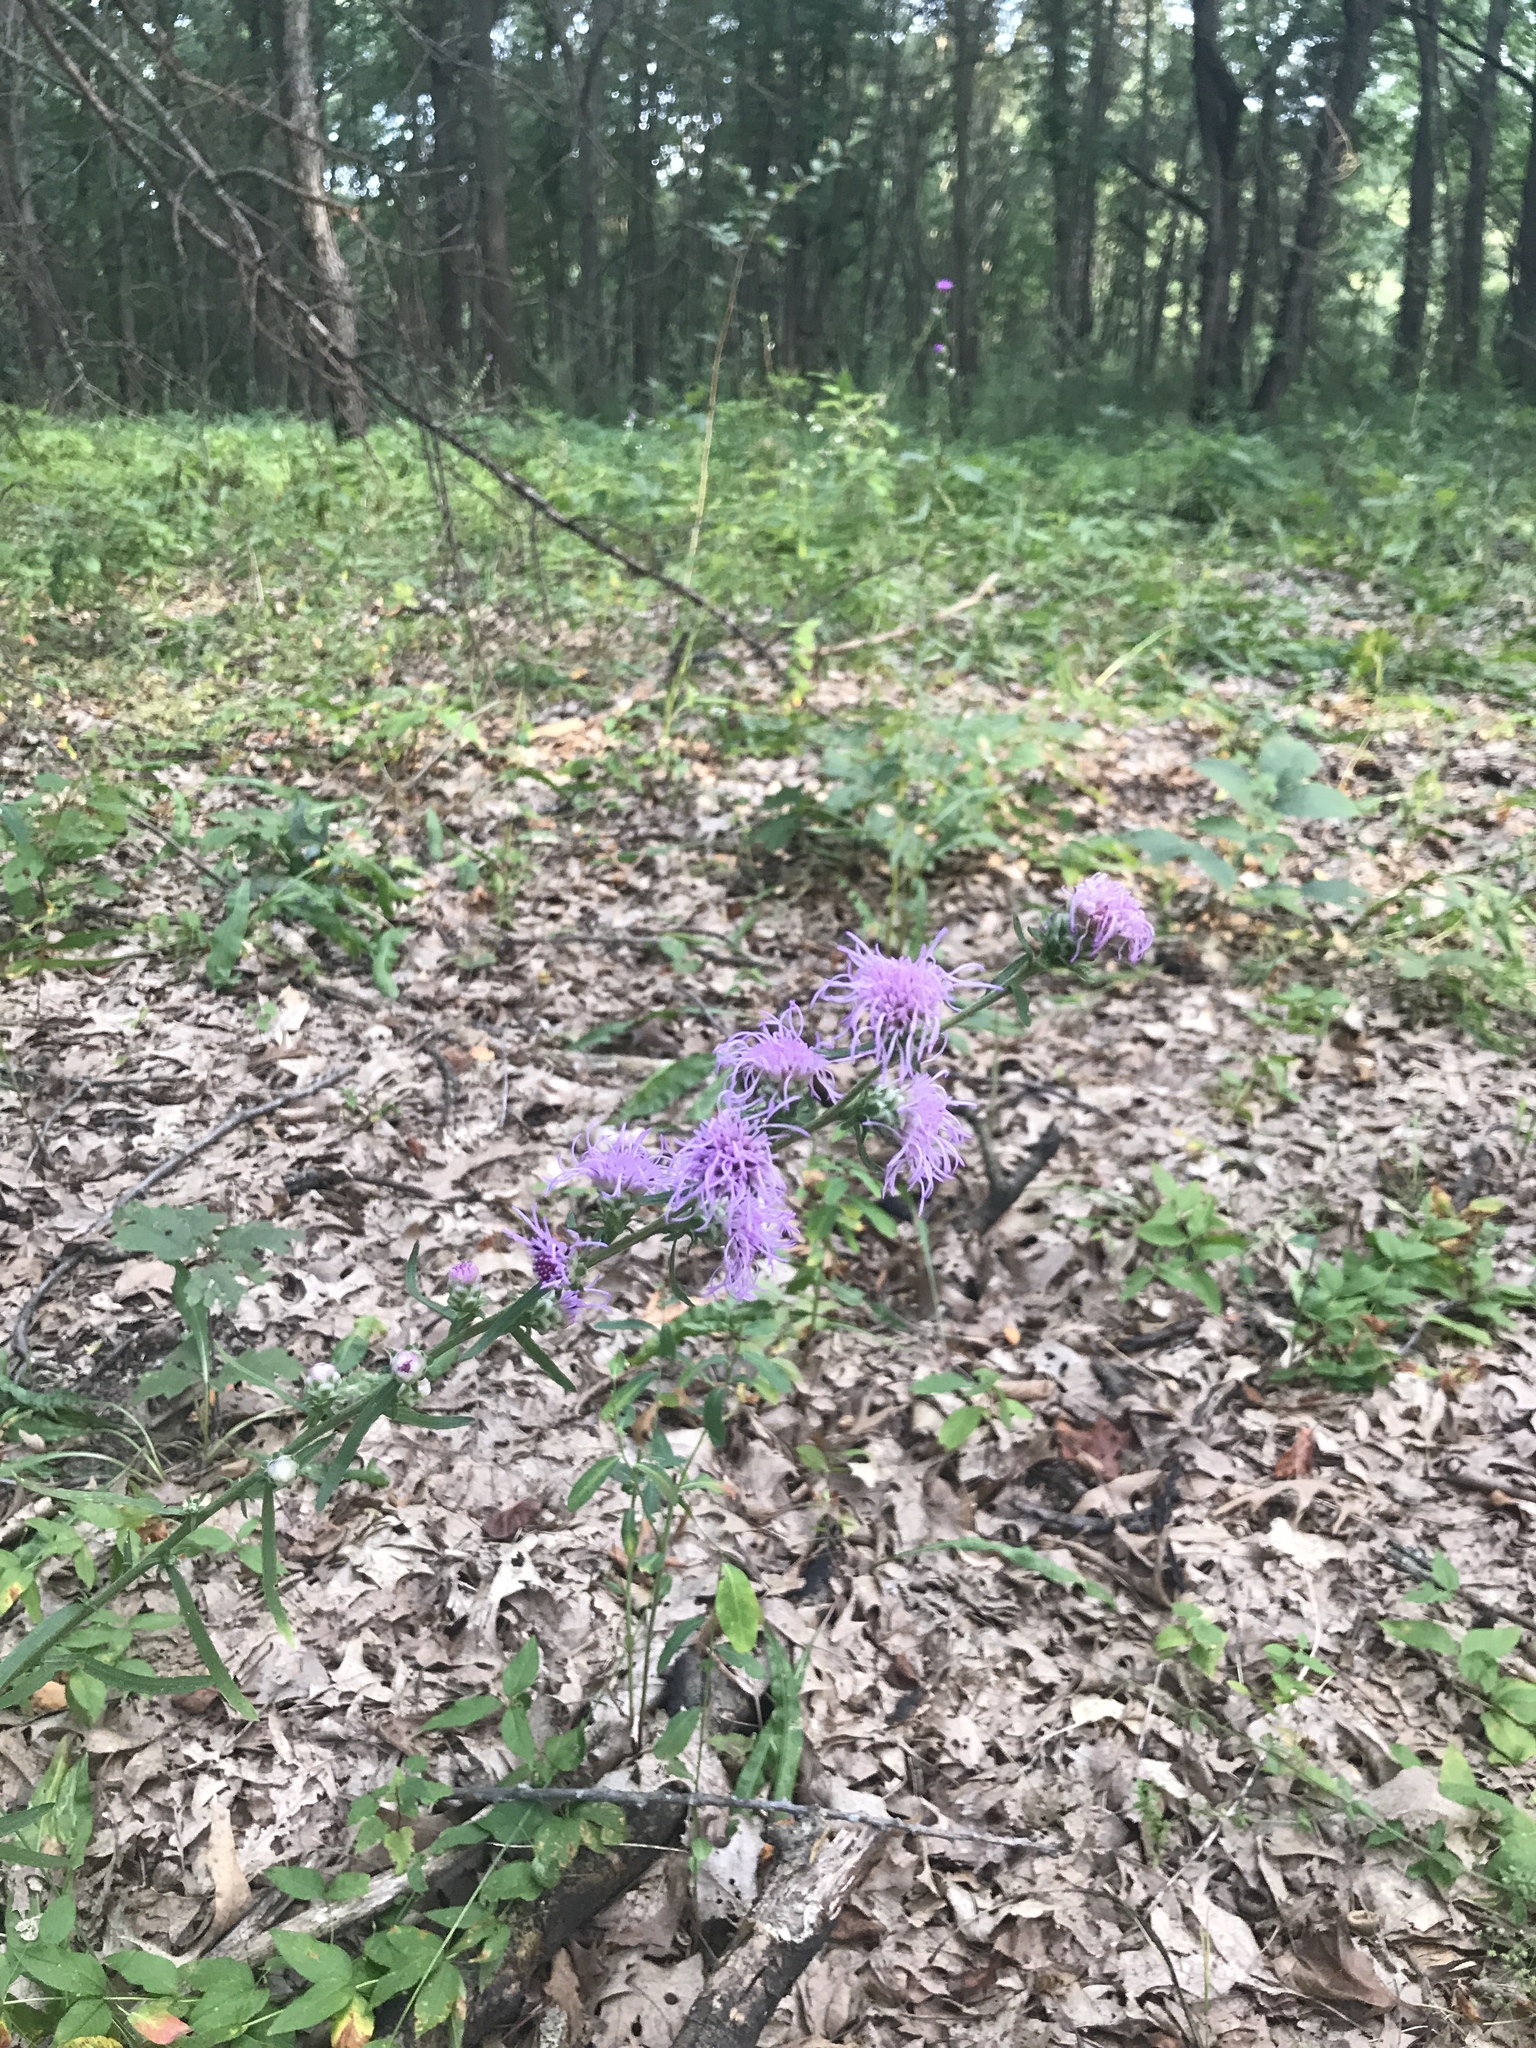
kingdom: Plantae
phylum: Tracheophyta
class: Magnoliopsida
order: Asterales
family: Asteraceae
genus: Liatris
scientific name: Liatris aspera
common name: Lacerate blazing-star
